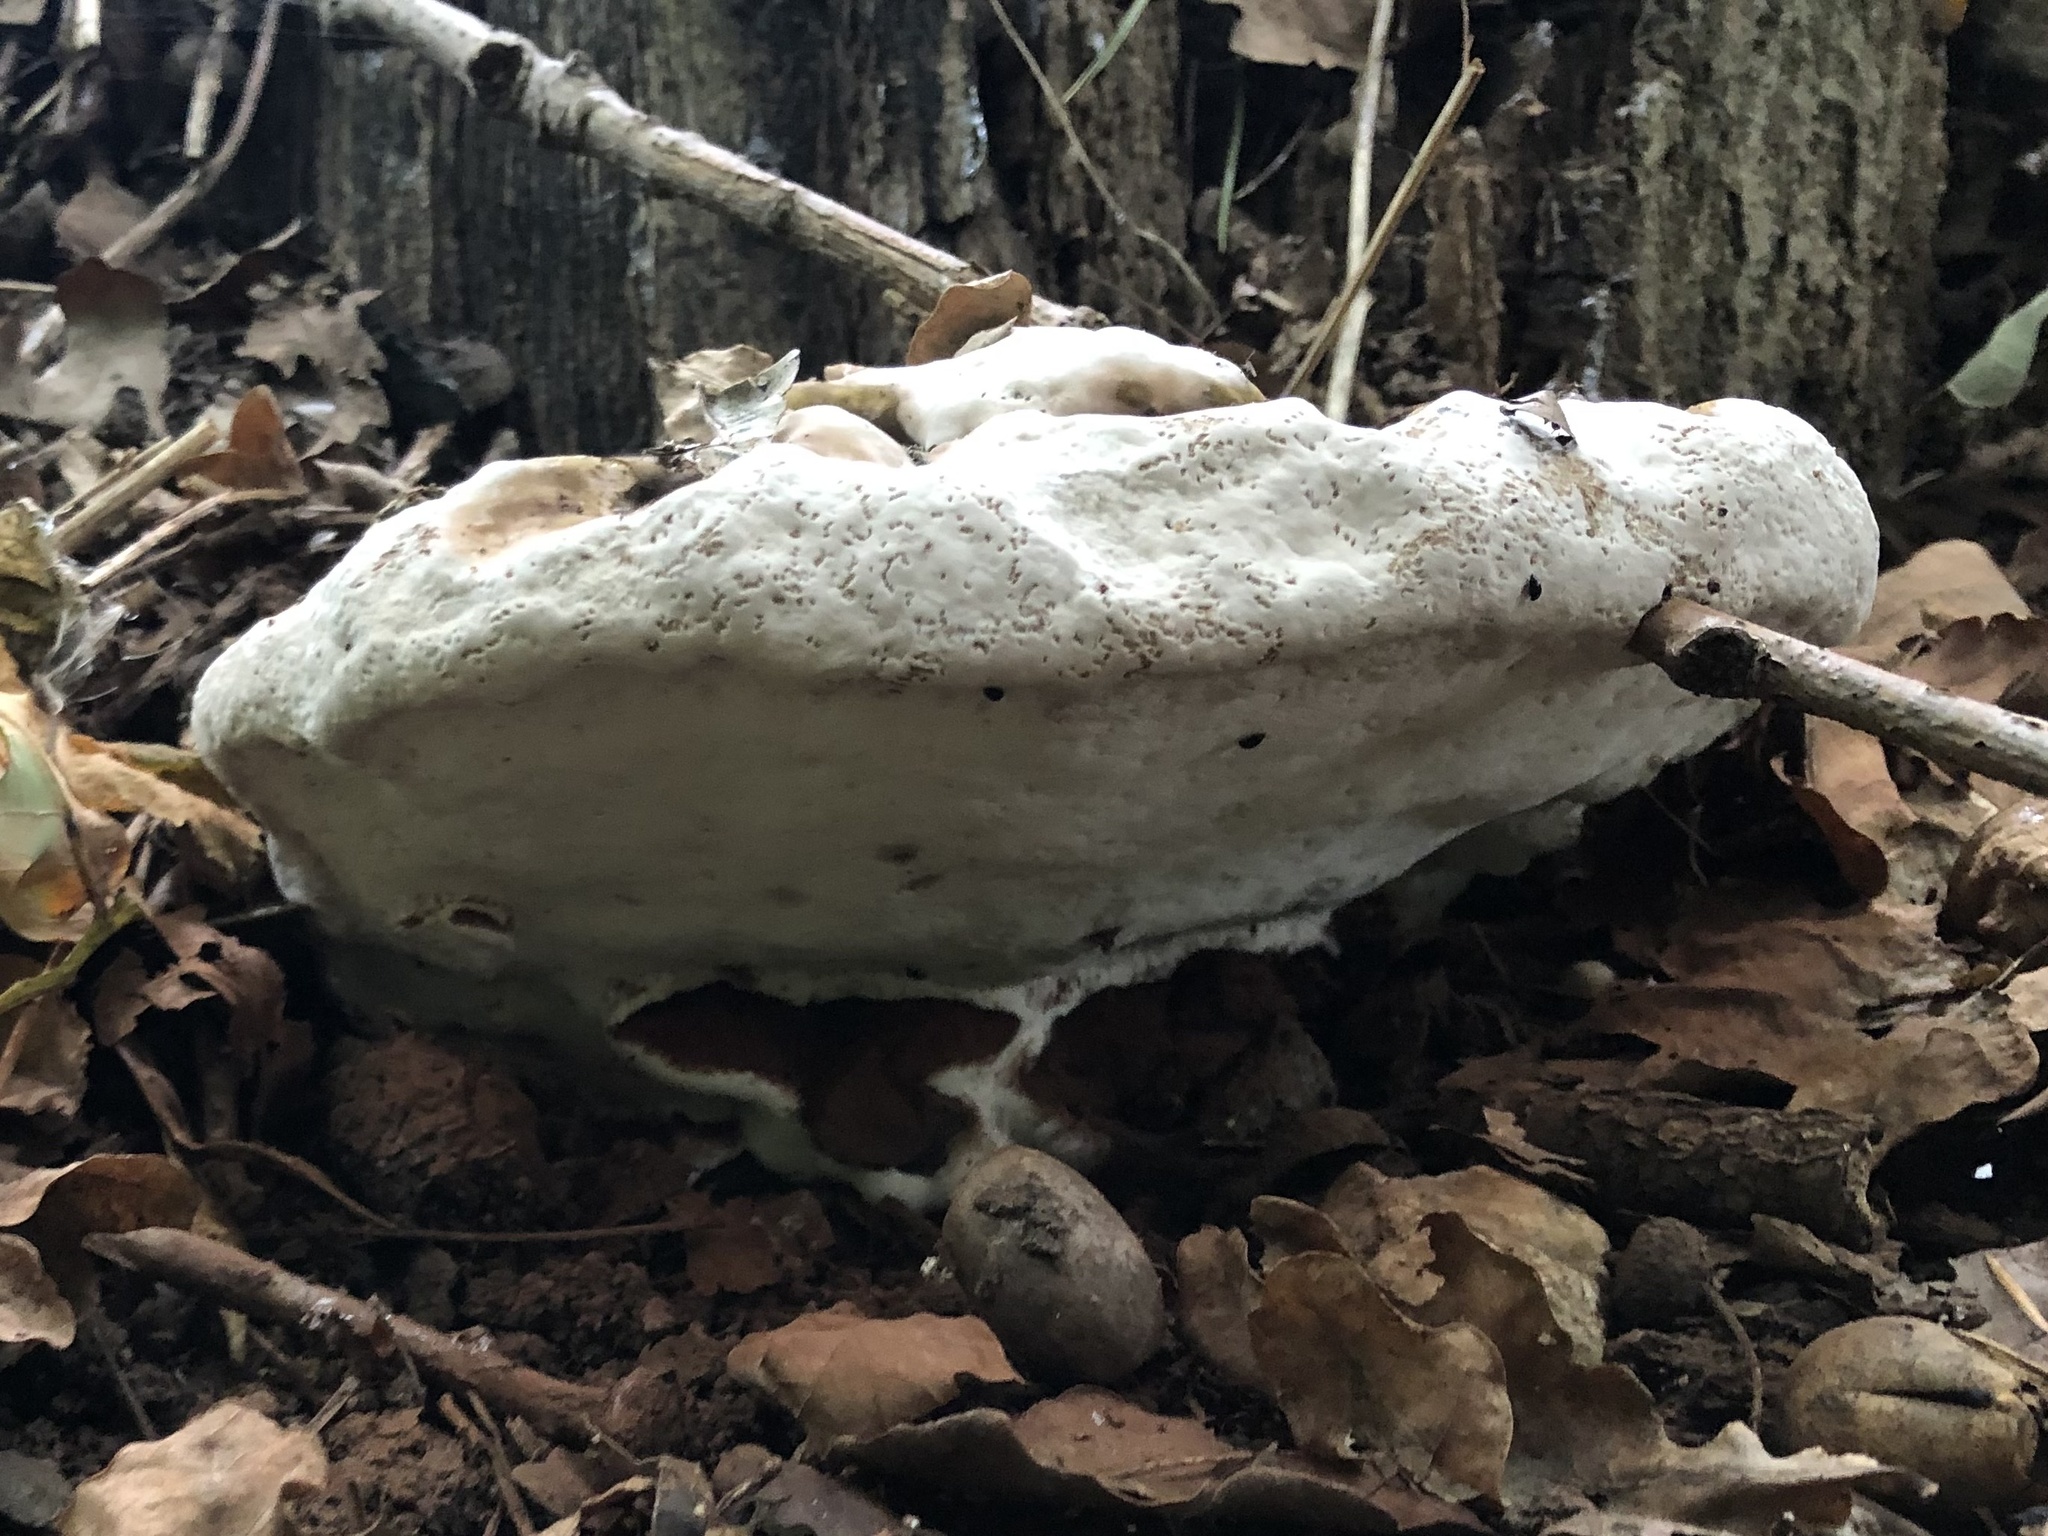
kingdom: Fungi
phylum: Basidiomycota
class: Agaricomycetes
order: Polyporales
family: Polyporaceae
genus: Ganoderma
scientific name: Ganoderma applanatum
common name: Artist's bracket
